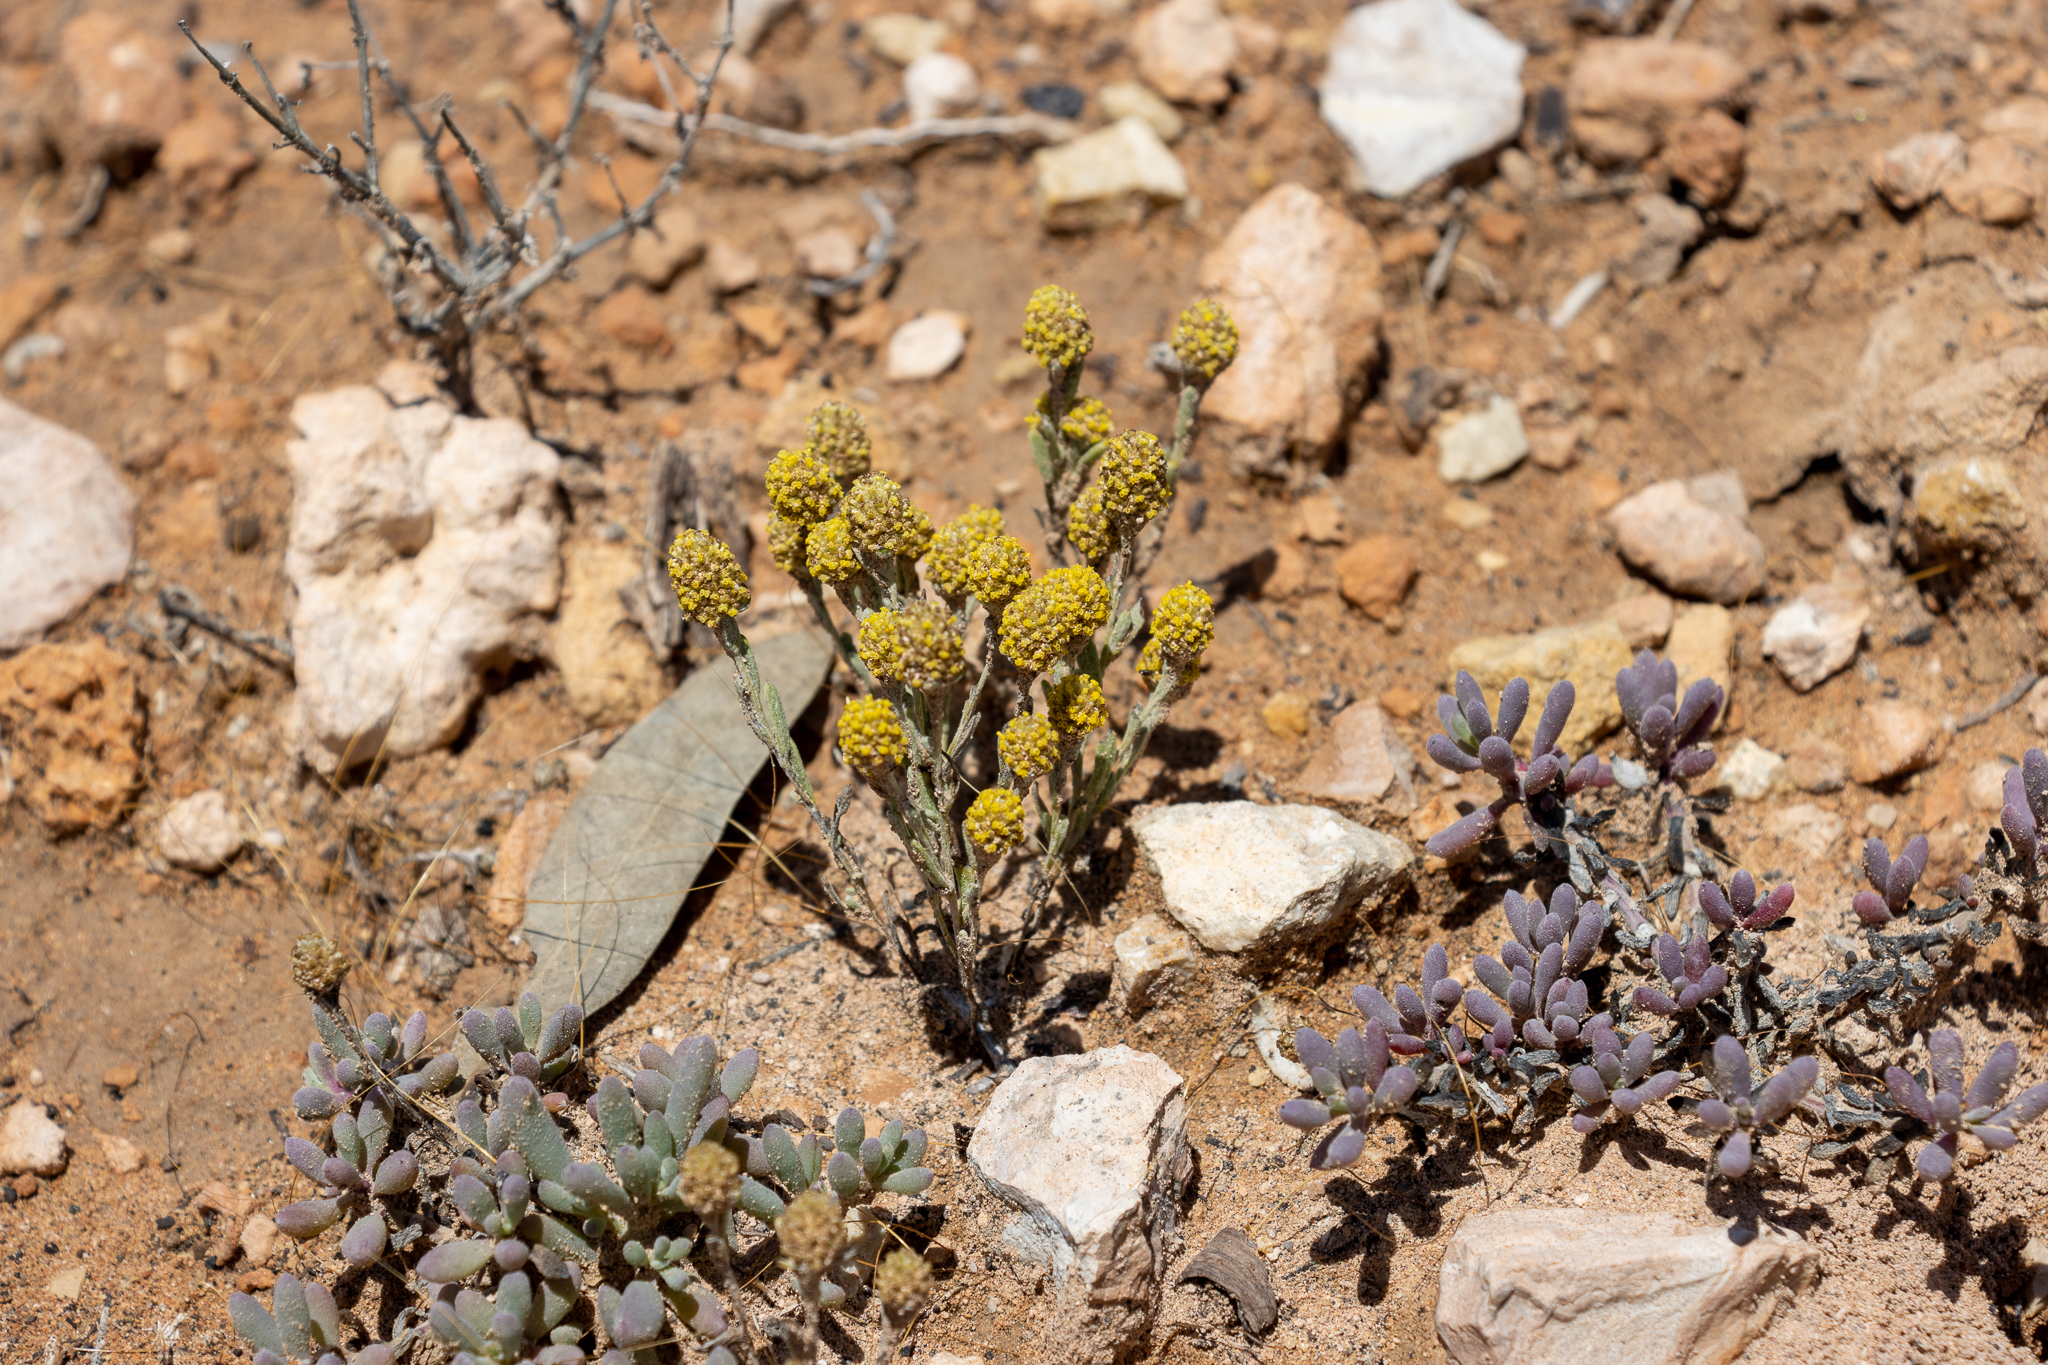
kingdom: Plantae
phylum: Tracheophyta
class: Magnoliopsida
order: Asterales
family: Asteraceae
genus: Siloxerus
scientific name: Siloxerus tomentosus
